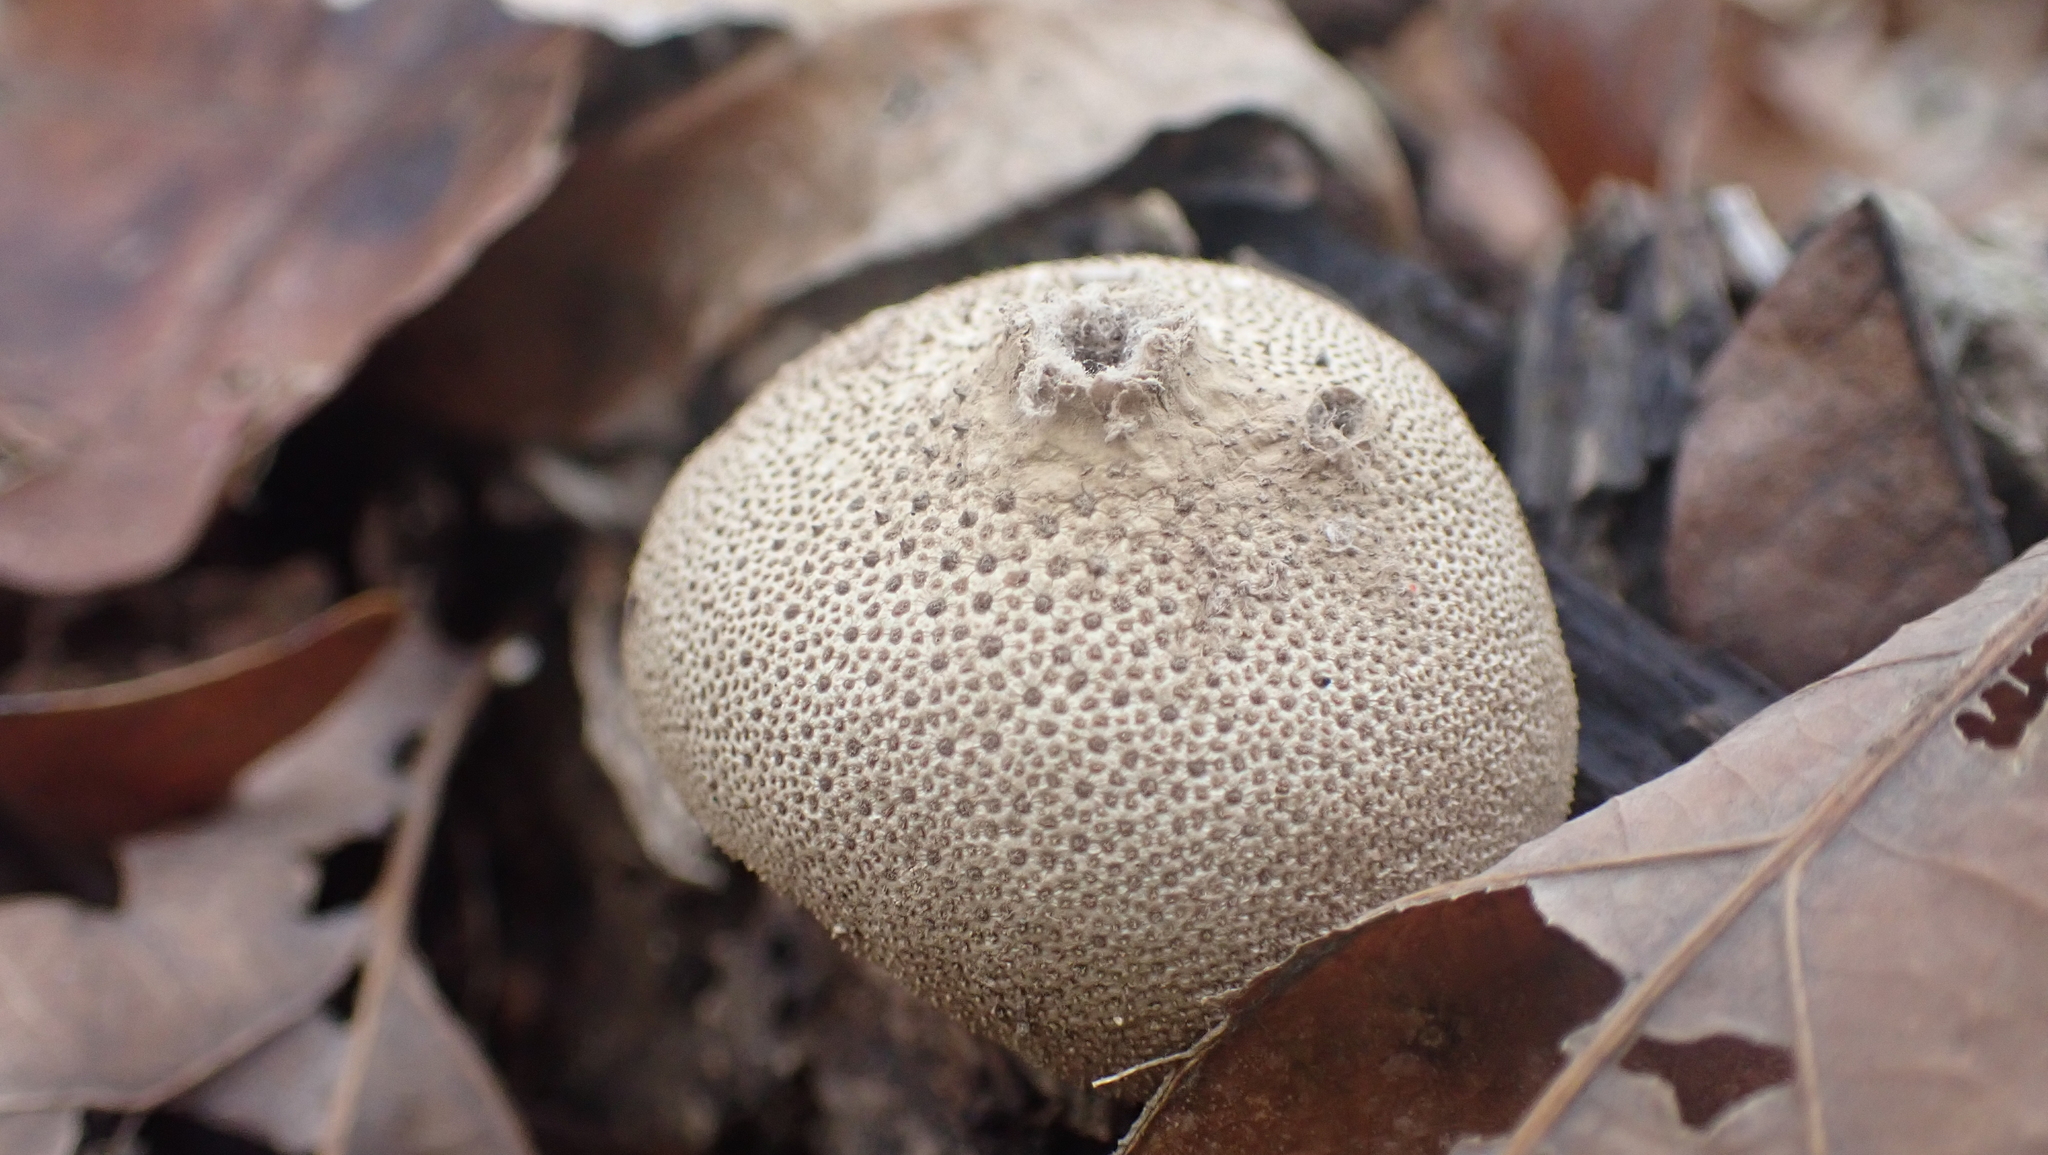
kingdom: Fungi
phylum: Basidiomycota
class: Agaricomycetes
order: Agaricales
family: Lycoperdaceae
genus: Lycoperdon
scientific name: Lycoperdon perlatum
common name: Common puffball
